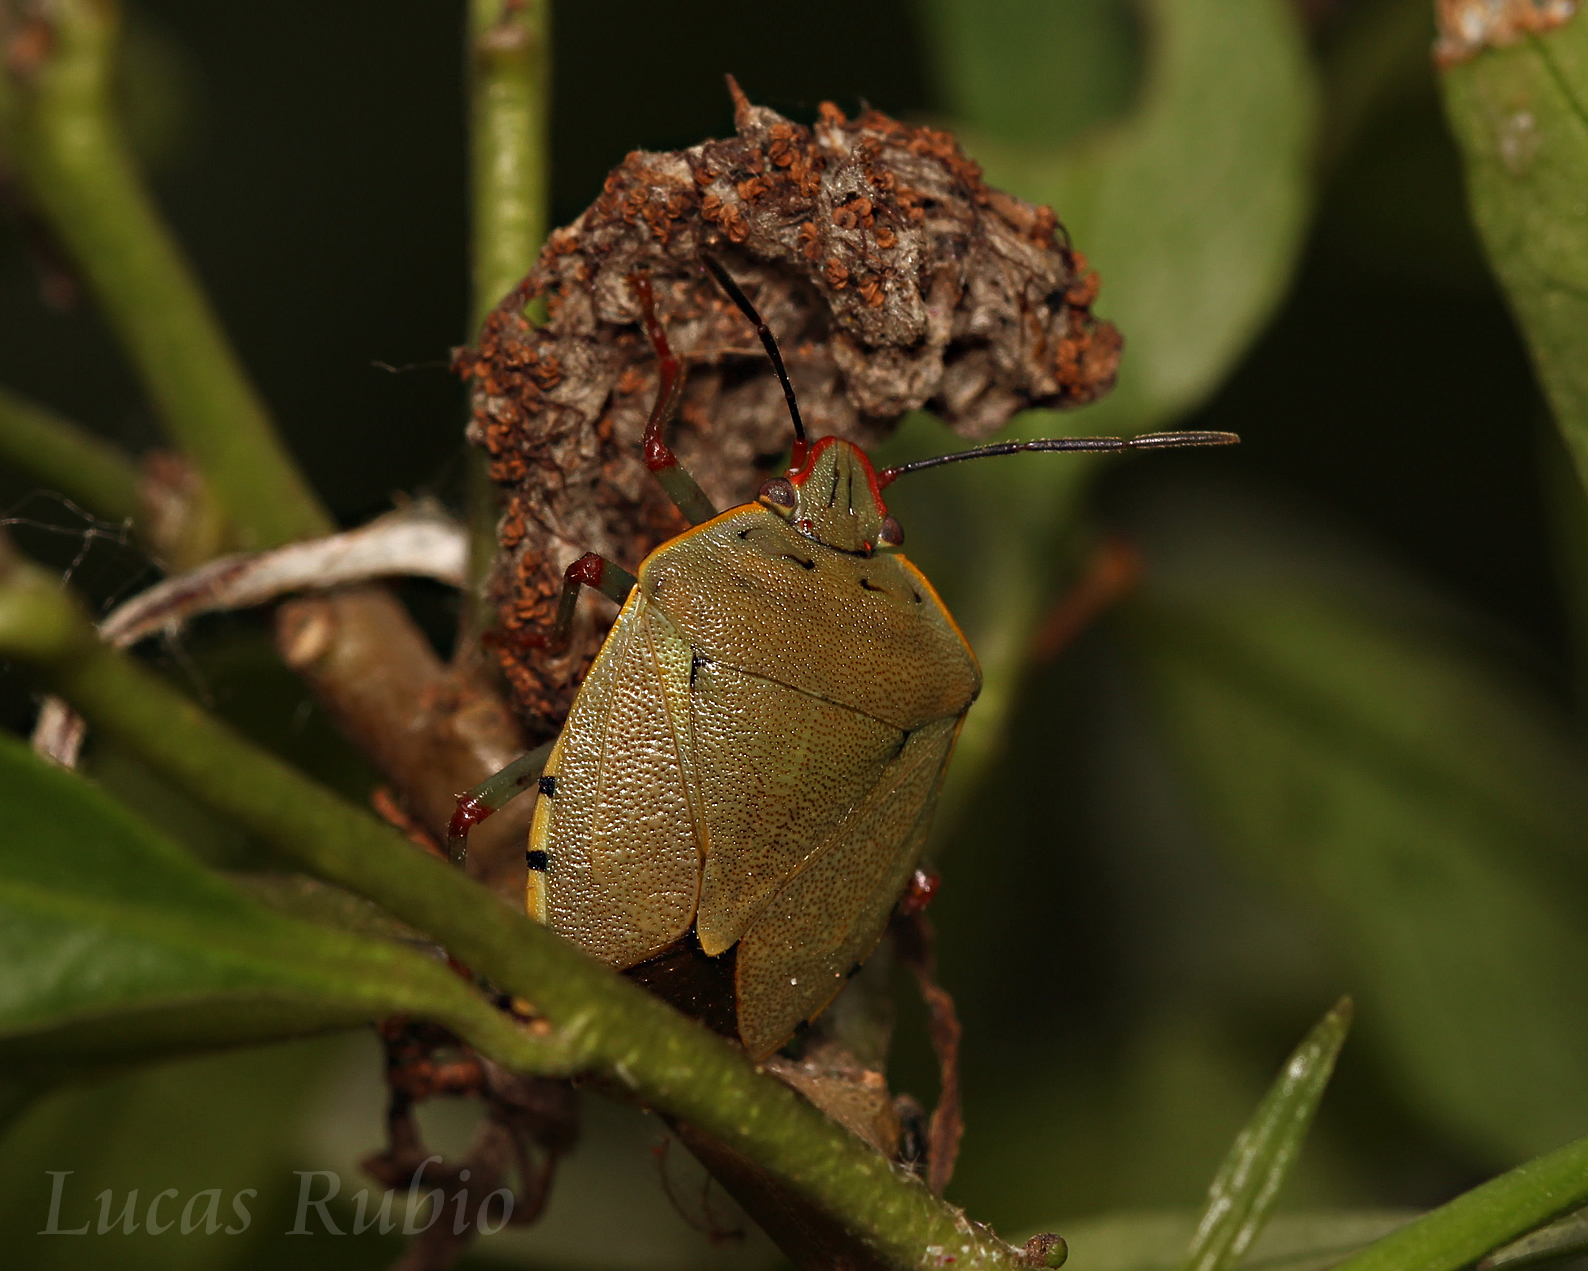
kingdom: Animalia
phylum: Arthropoda
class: Insecta
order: Hemiptera
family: Pentatomidae
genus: Chinavia
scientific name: Chinavia erythrocnemis
